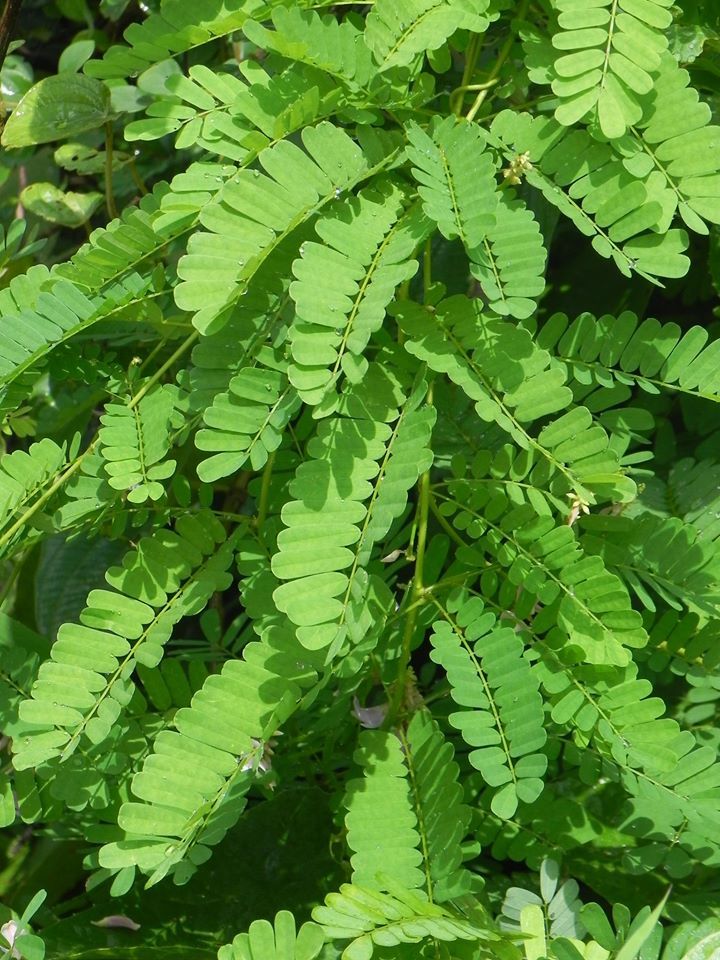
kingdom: Plantae
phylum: Tracheophyta
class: Magnoliopsida
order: Fabales
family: Fabaceae
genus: Abrus
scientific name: Abrus precatorius
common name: Rosarypea
